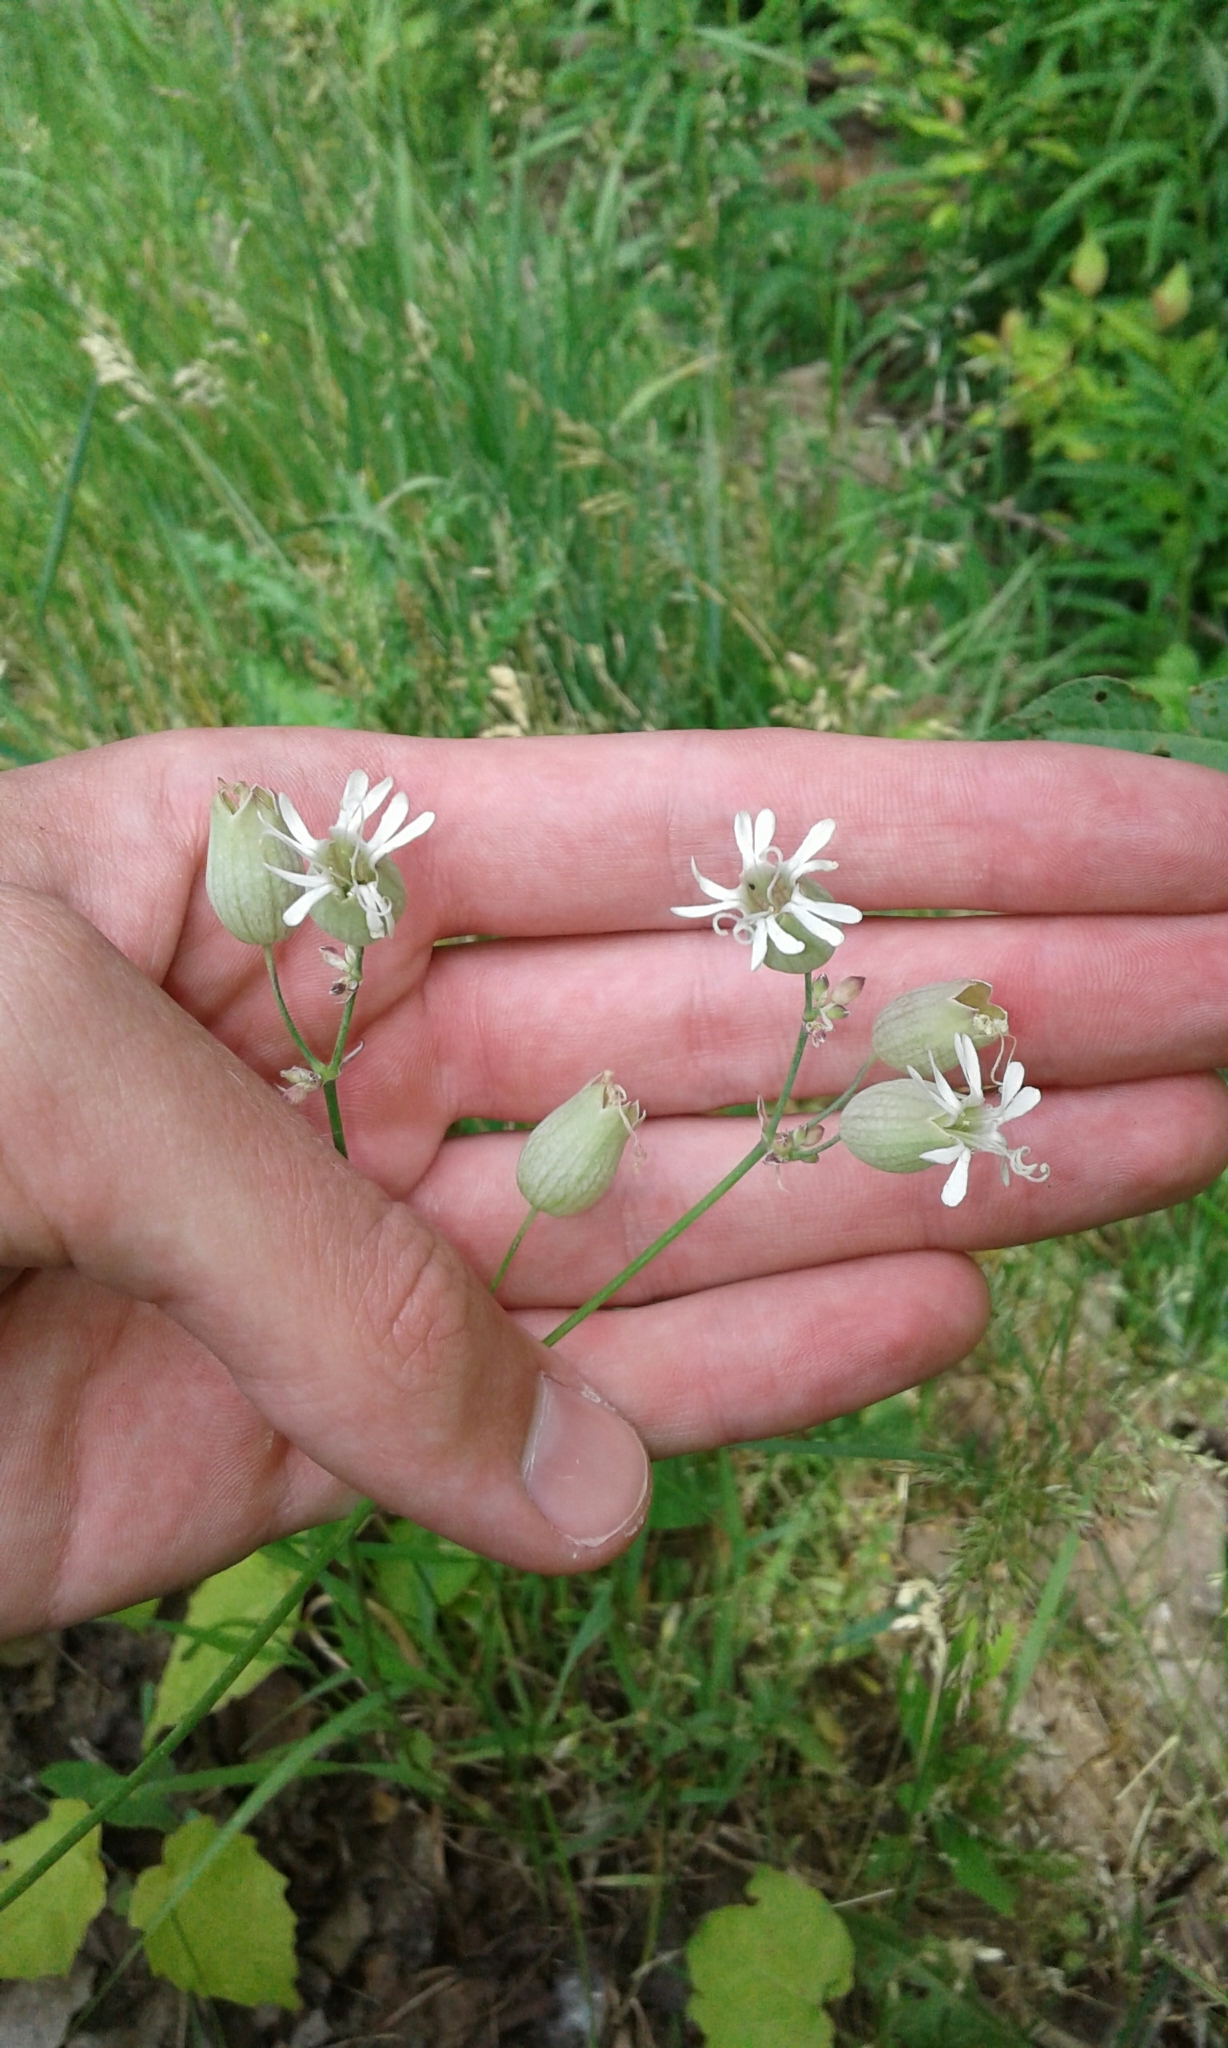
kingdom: Plantae
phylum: Tracheophyta
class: Magnoliopsida
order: Caryophyllales
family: Caryophyllaceae
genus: Silene
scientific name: Silene vulgaris
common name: Bladder campion
